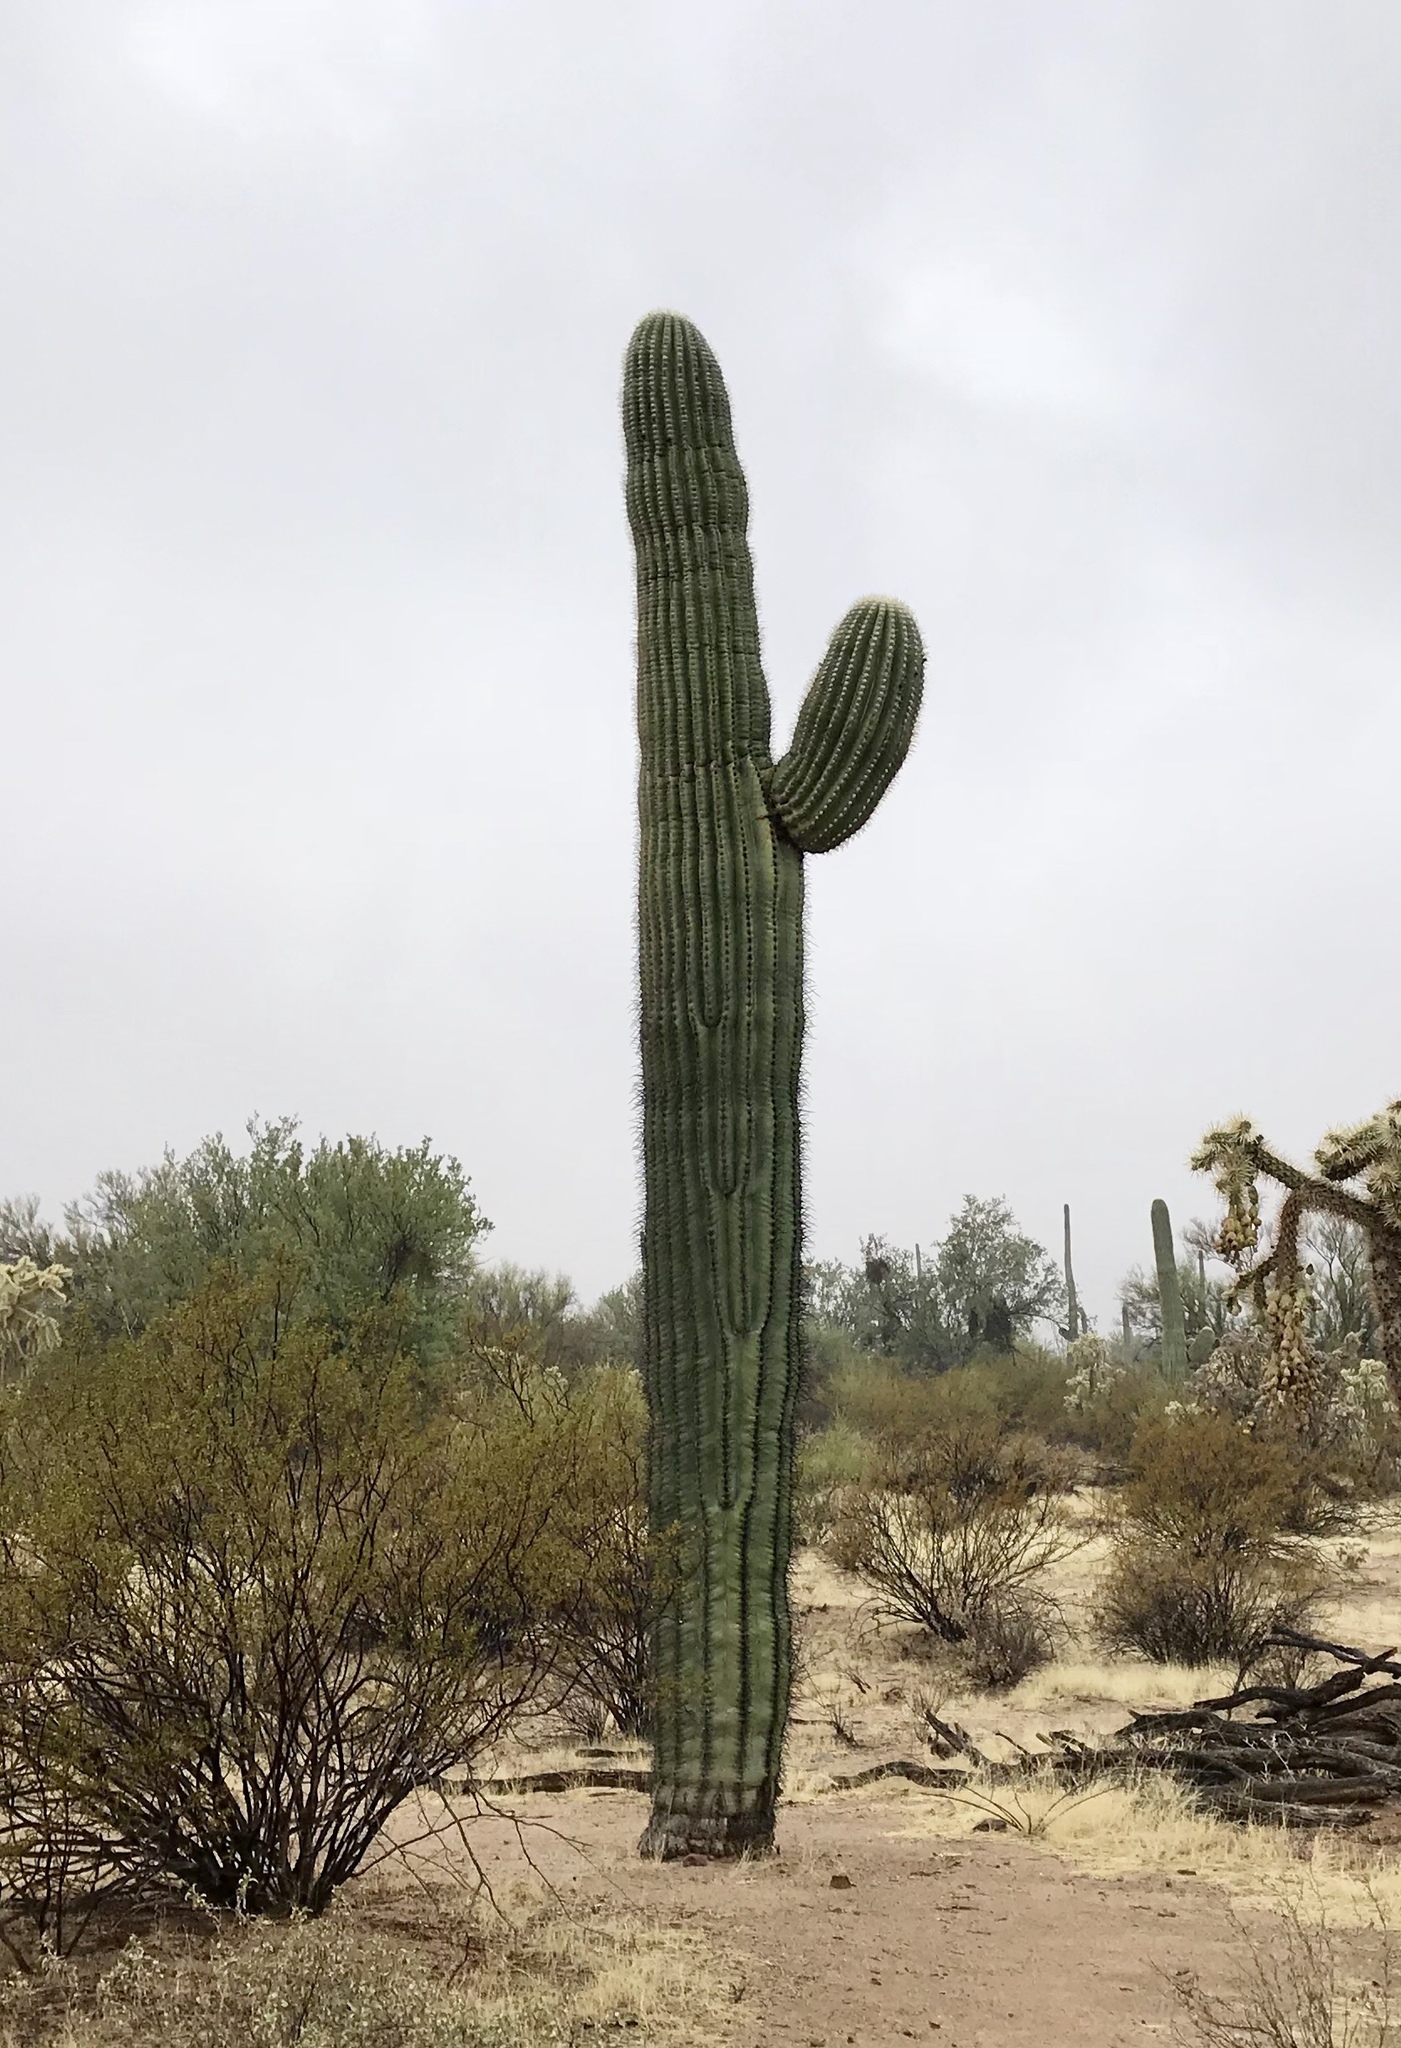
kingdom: Plantae
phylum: Tracheophyta
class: Magnoliopsida
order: Caryophyllales
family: Cactaceae
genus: Carnegiea
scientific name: Carnegiea gigantea
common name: Saguaro
